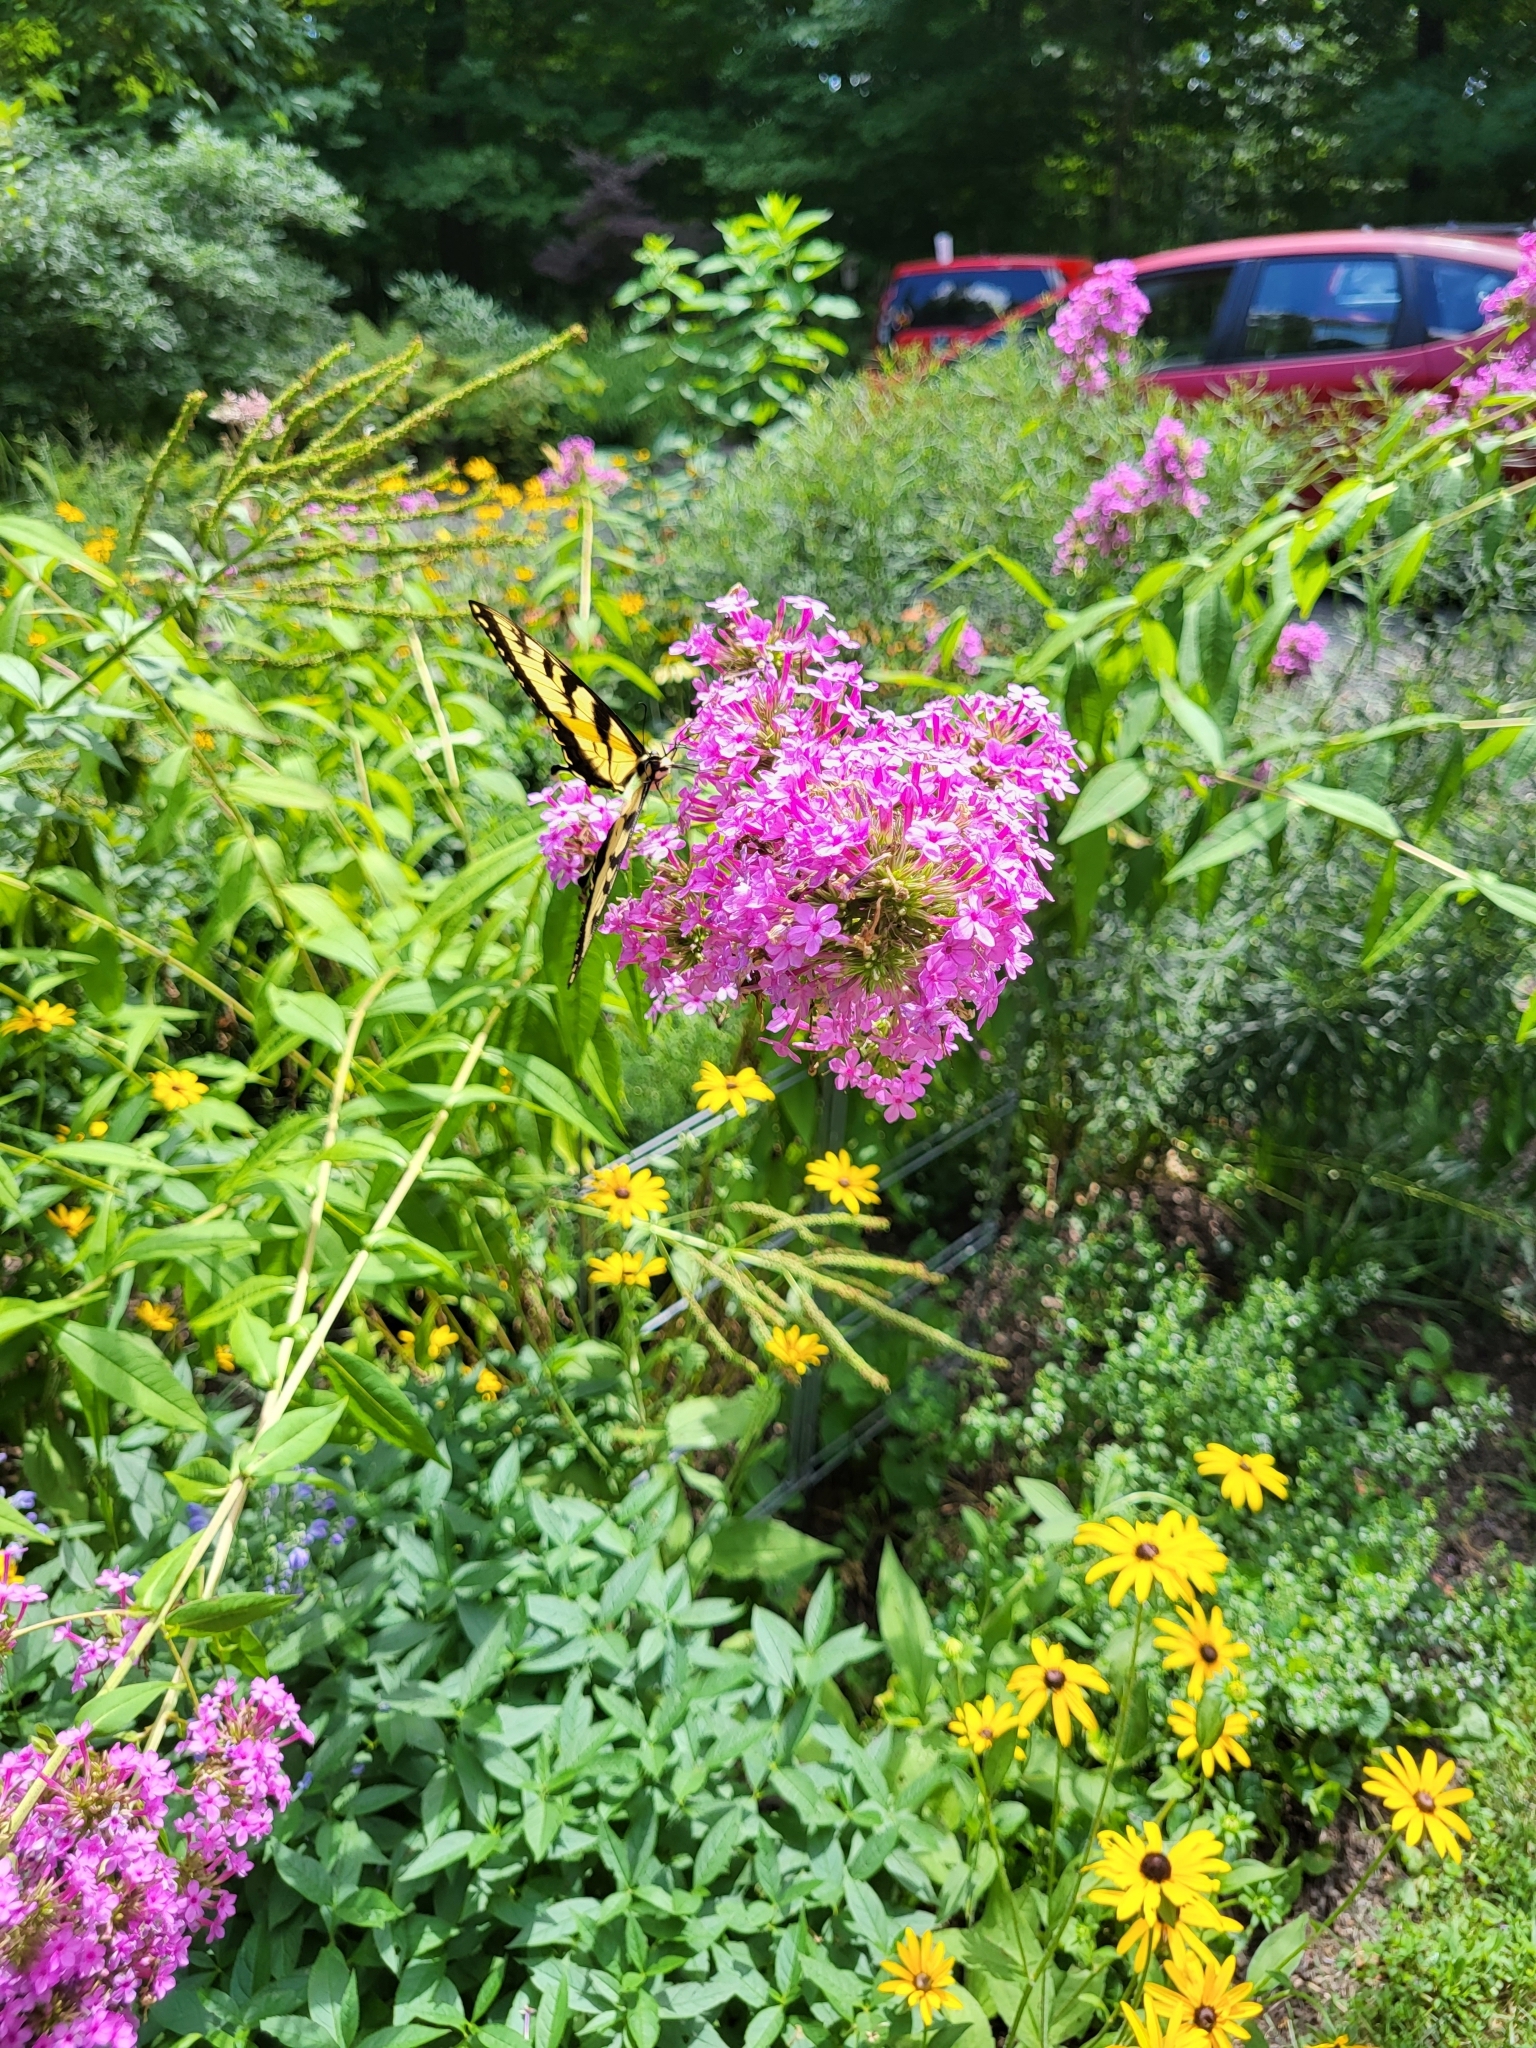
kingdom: Animalia
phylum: Arthropoda
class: Insecta
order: Lepidoptera
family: Papilionidae
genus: Papilio
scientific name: Papilio glaucus
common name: Tiger swallowtail
